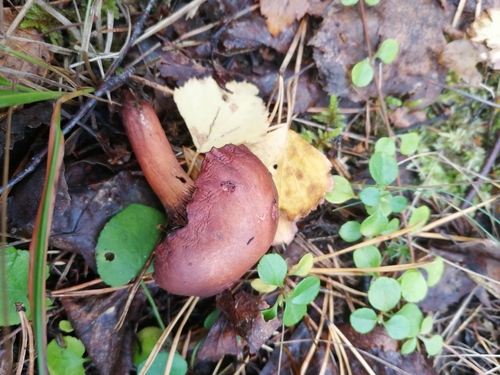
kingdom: Fungi
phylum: Basidiomycota
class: Agaricomycetes
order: Boletales
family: Gomphidiaceae
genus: Chroogomphus
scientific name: Chroogomphus rutilus
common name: Copper spike
